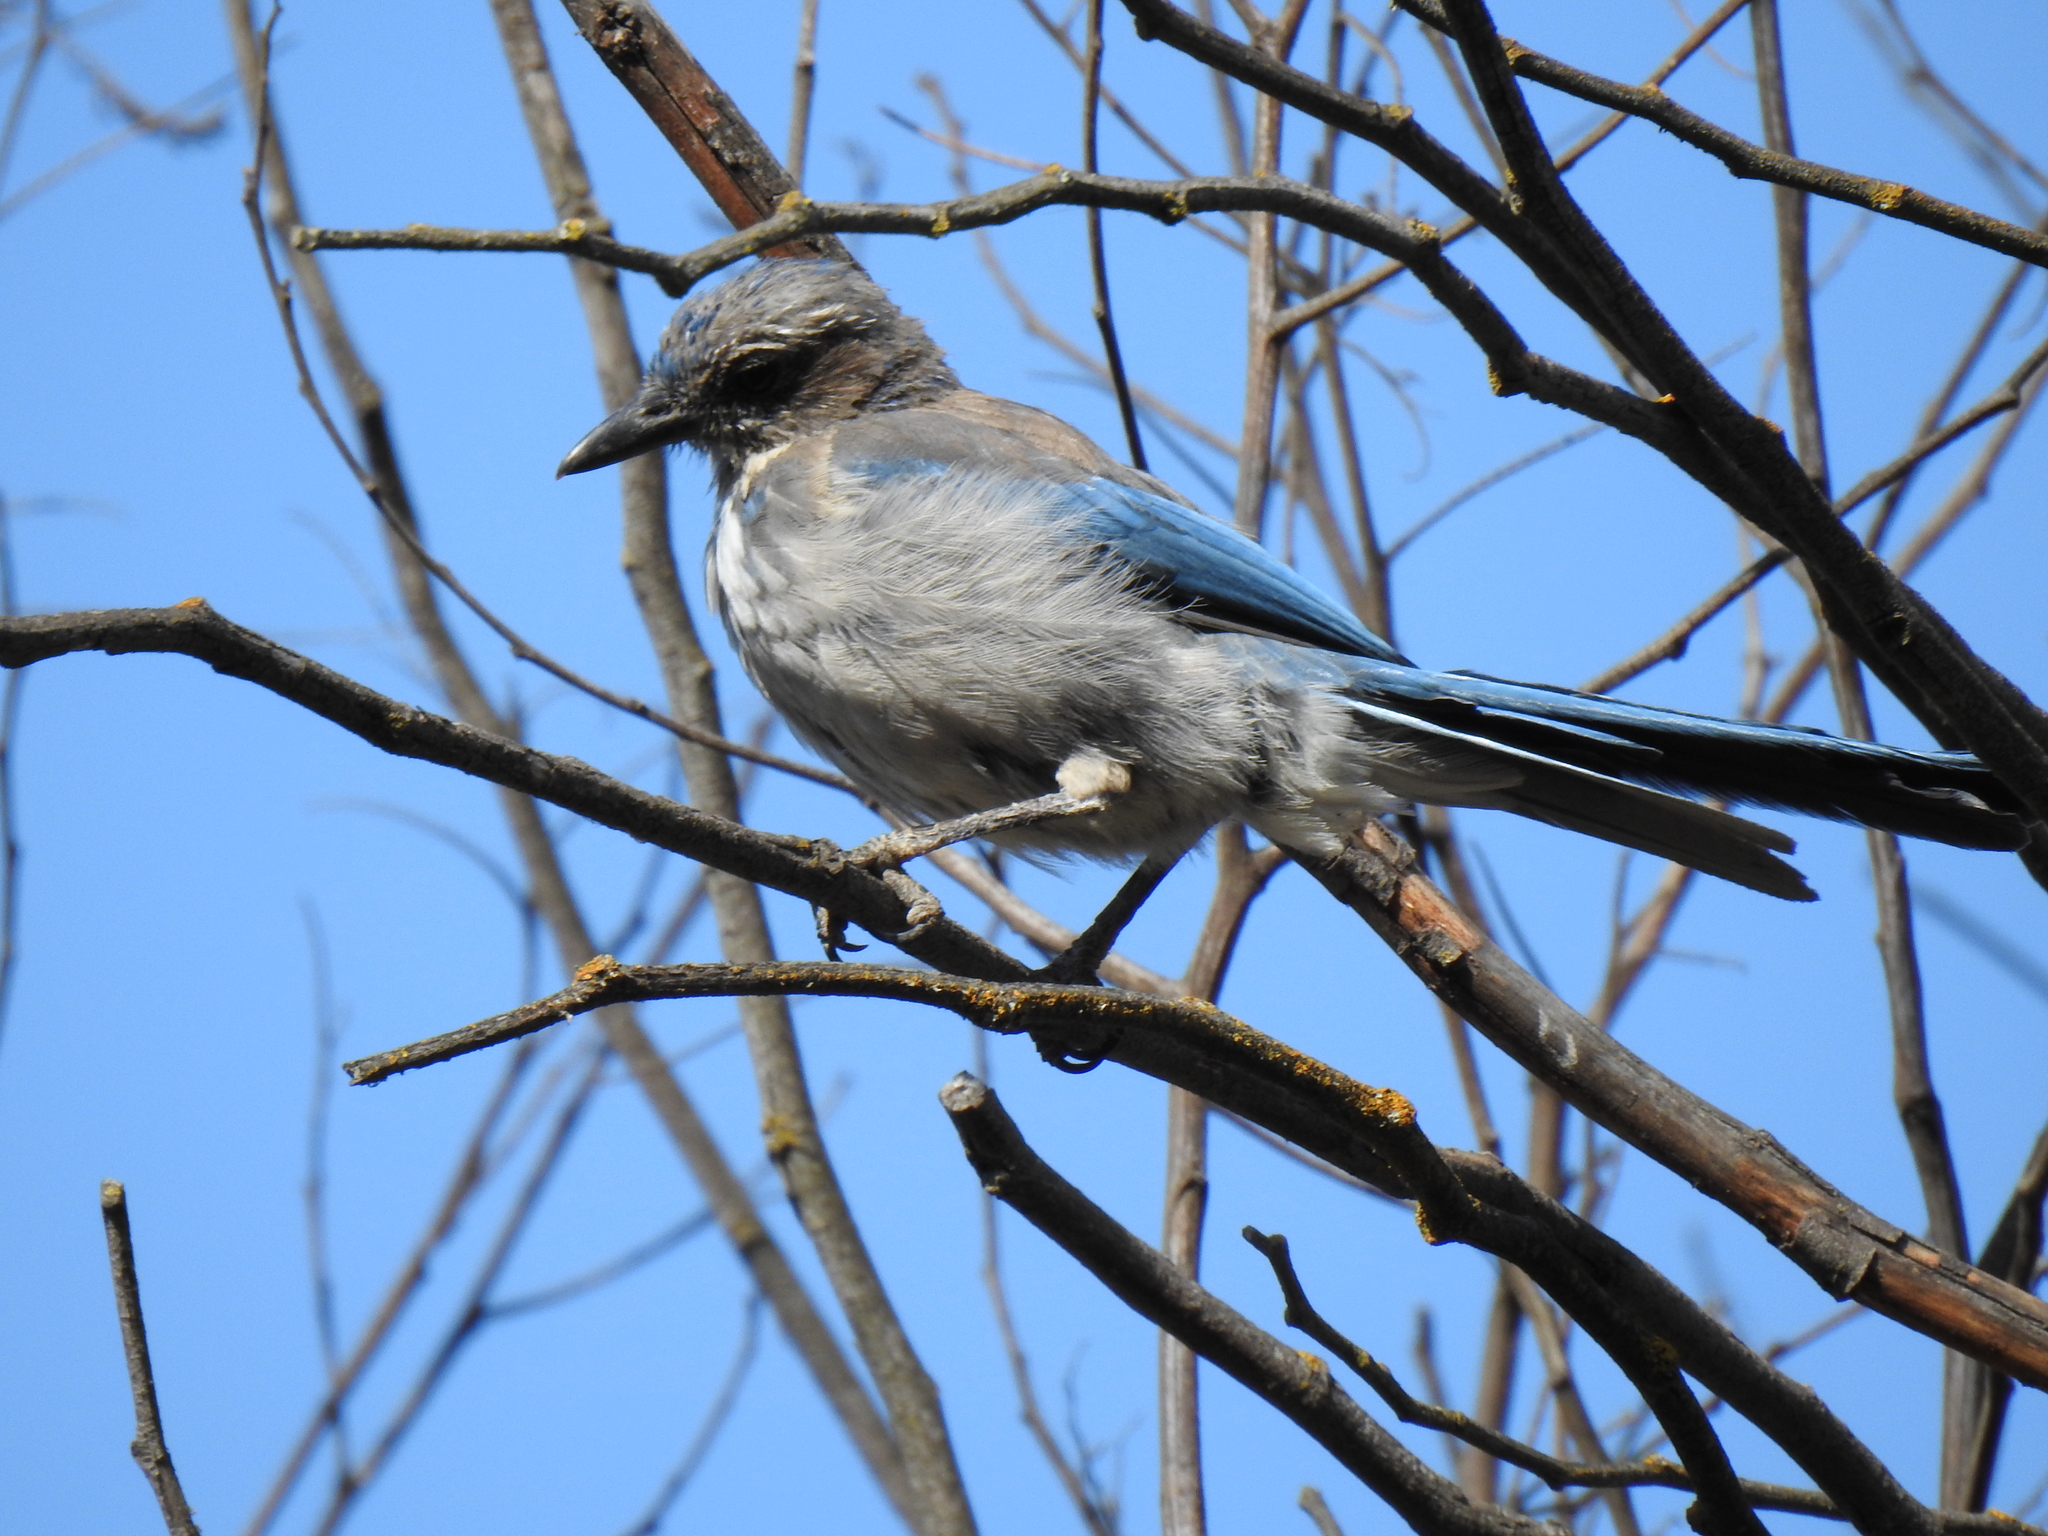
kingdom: Animalia
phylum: Chordata
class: Aves
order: Passeriformes
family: Corvidae
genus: Aphelocoma
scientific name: Aphelocoma californica
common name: California scrub-jay
